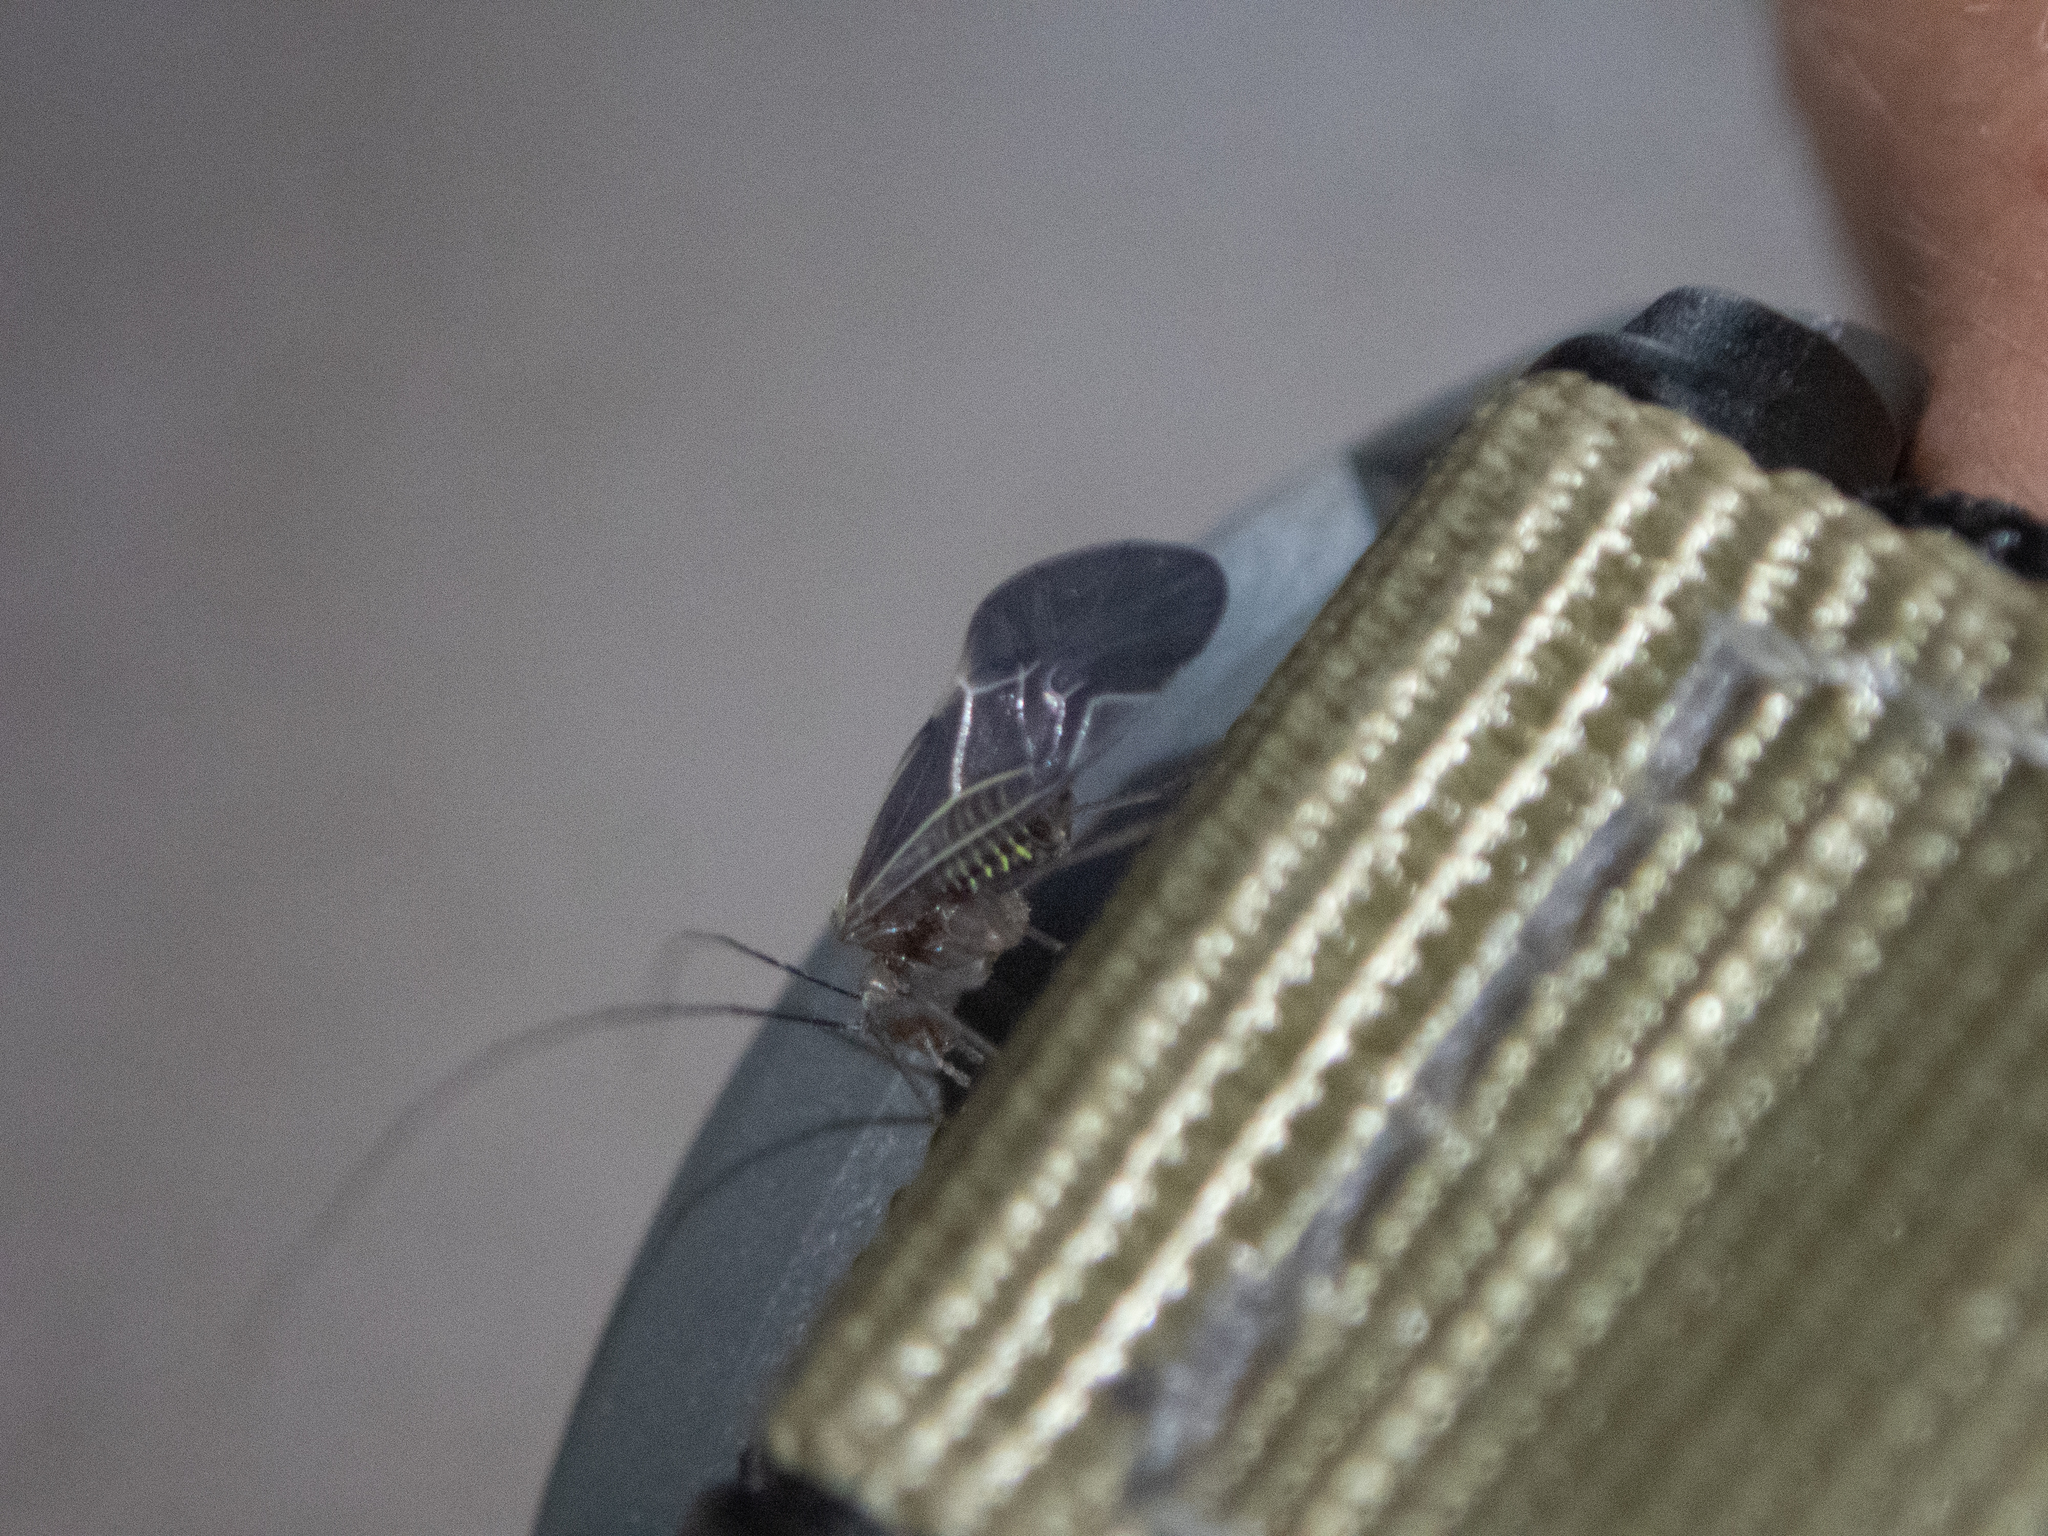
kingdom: Animalia
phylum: Arthropoda
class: Insecta
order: Psocodea
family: Psocidae
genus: Cerastipsocus
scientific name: Cerastipsocus venosus
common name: Tree cattle
